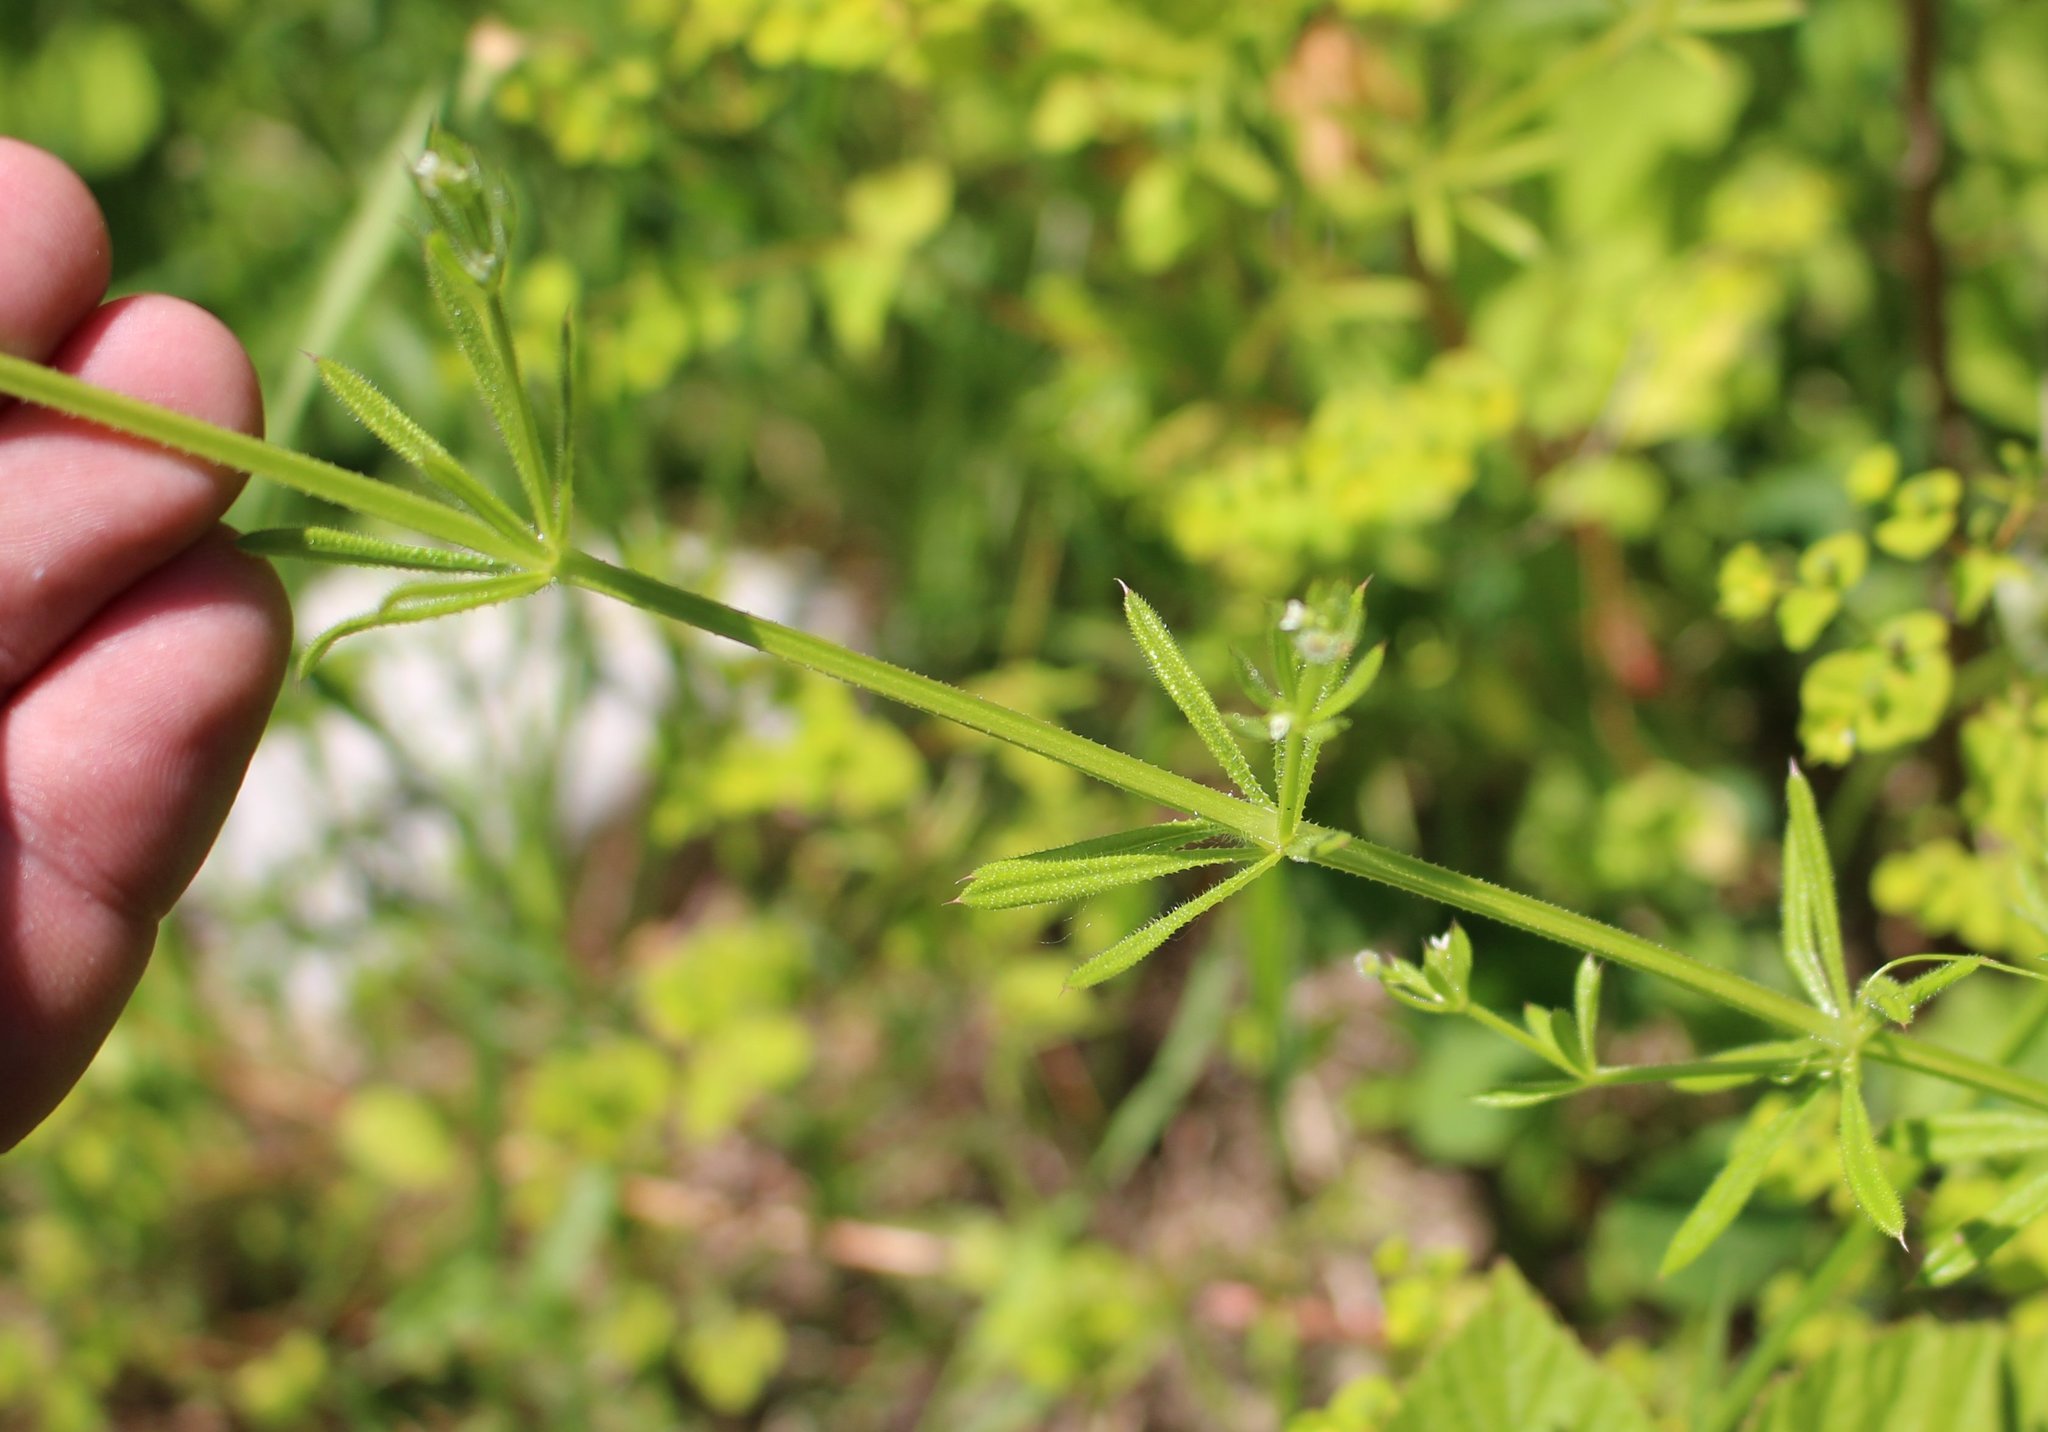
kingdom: Plantae
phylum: Tracheophyta
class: Magnoliopsida
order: Gentianales
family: Rubiaceae
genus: Galium
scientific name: Galium aparine
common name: Cleavers
